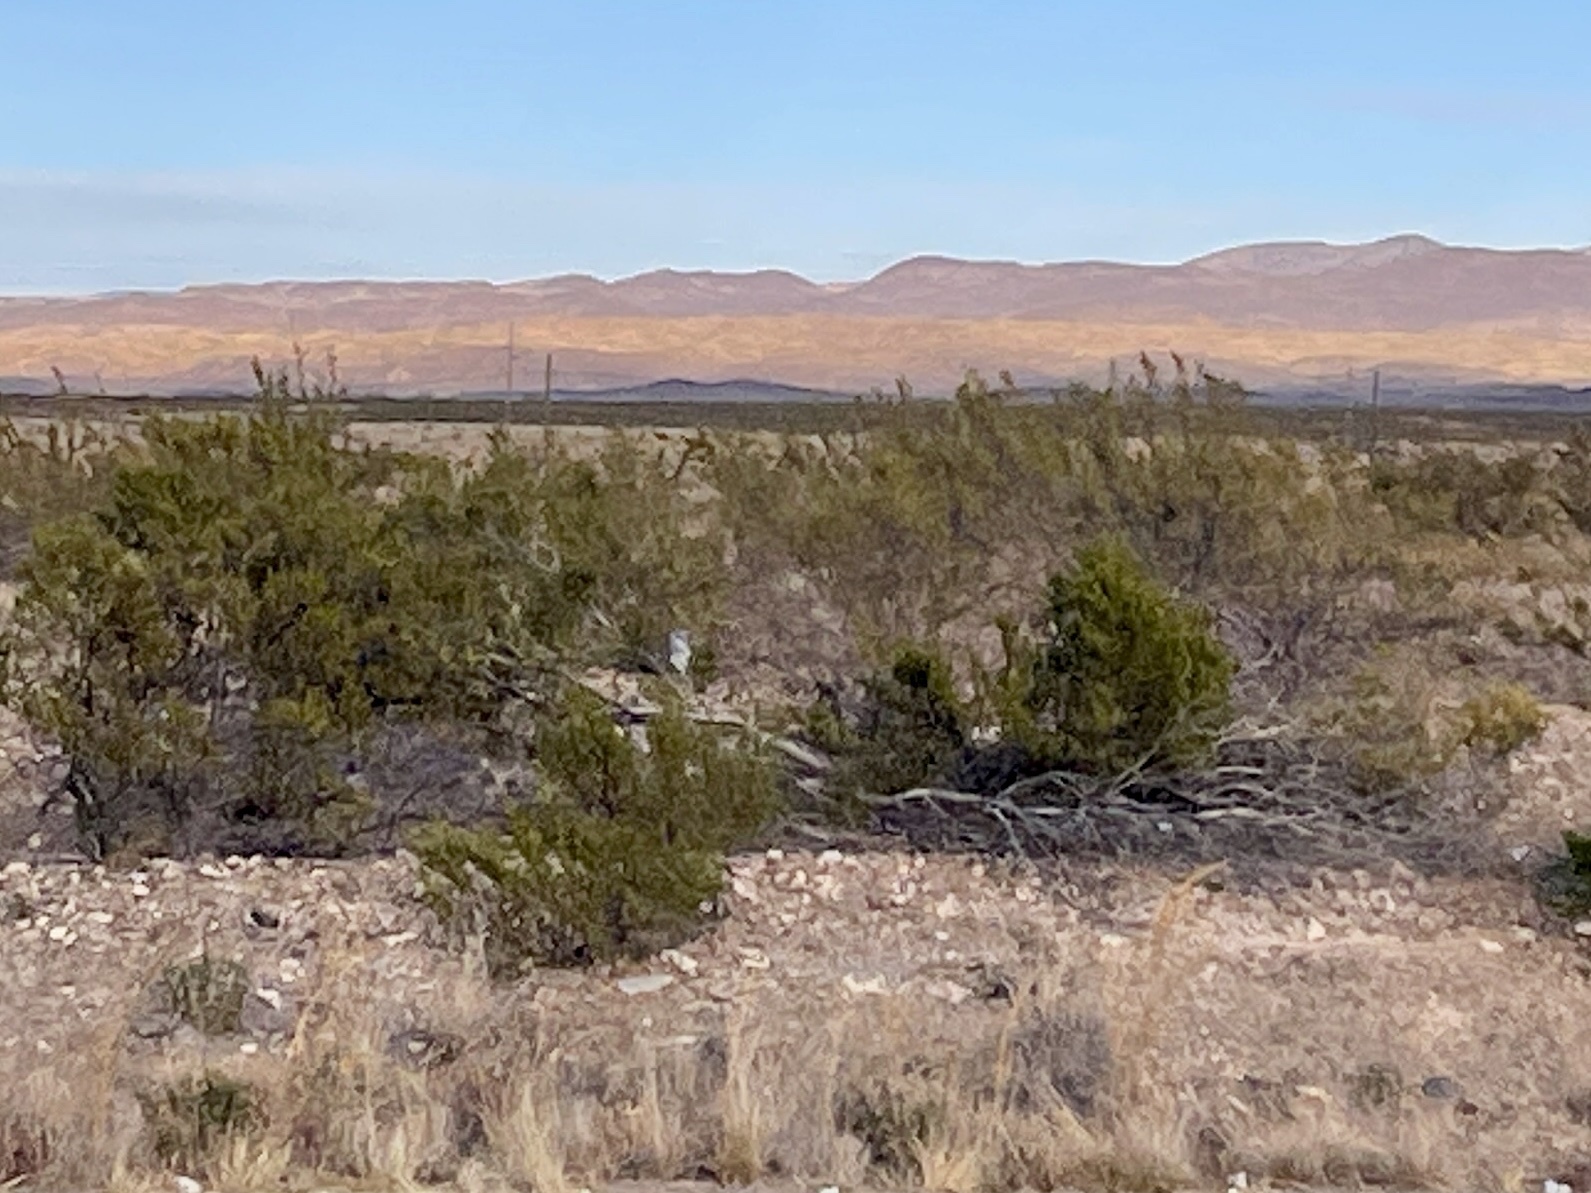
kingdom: Plantae
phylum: Tracheophyta
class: Magnoliopsida
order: Zygophyllales
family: Zygophyllaceae
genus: Larrea
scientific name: Larrea tridentata
